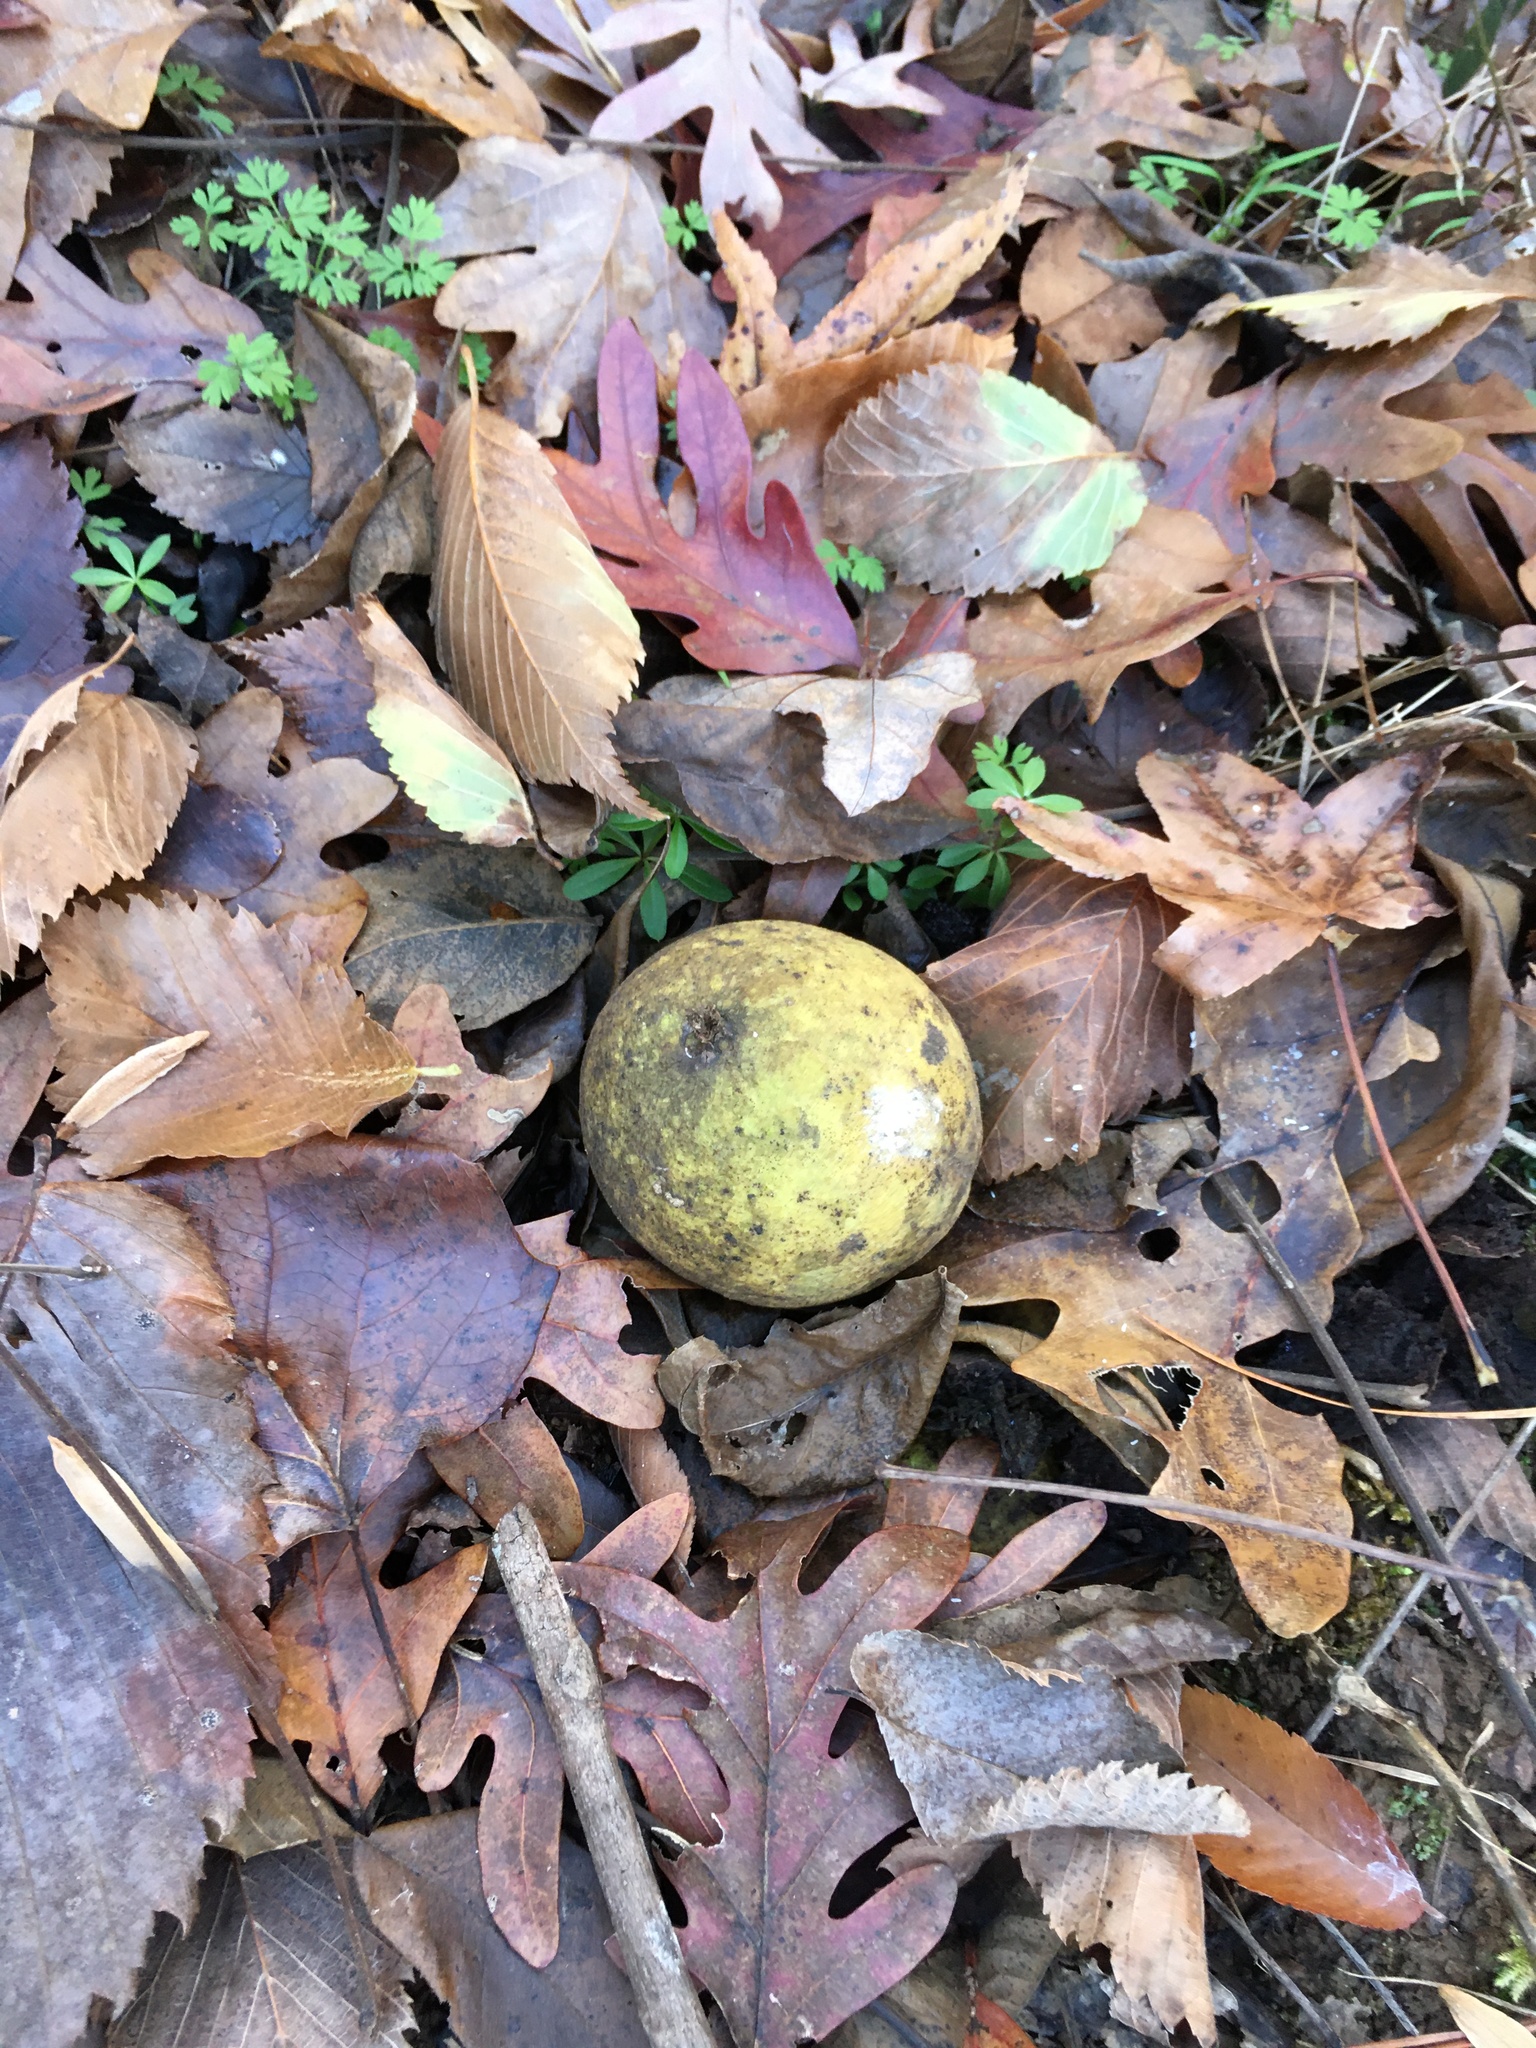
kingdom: Plantae
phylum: Tracheophyta
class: Magnoliopsida
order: Fagales
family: Juglandaceae
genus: Juglans
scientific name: Juglans nigra
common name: Black walnut
